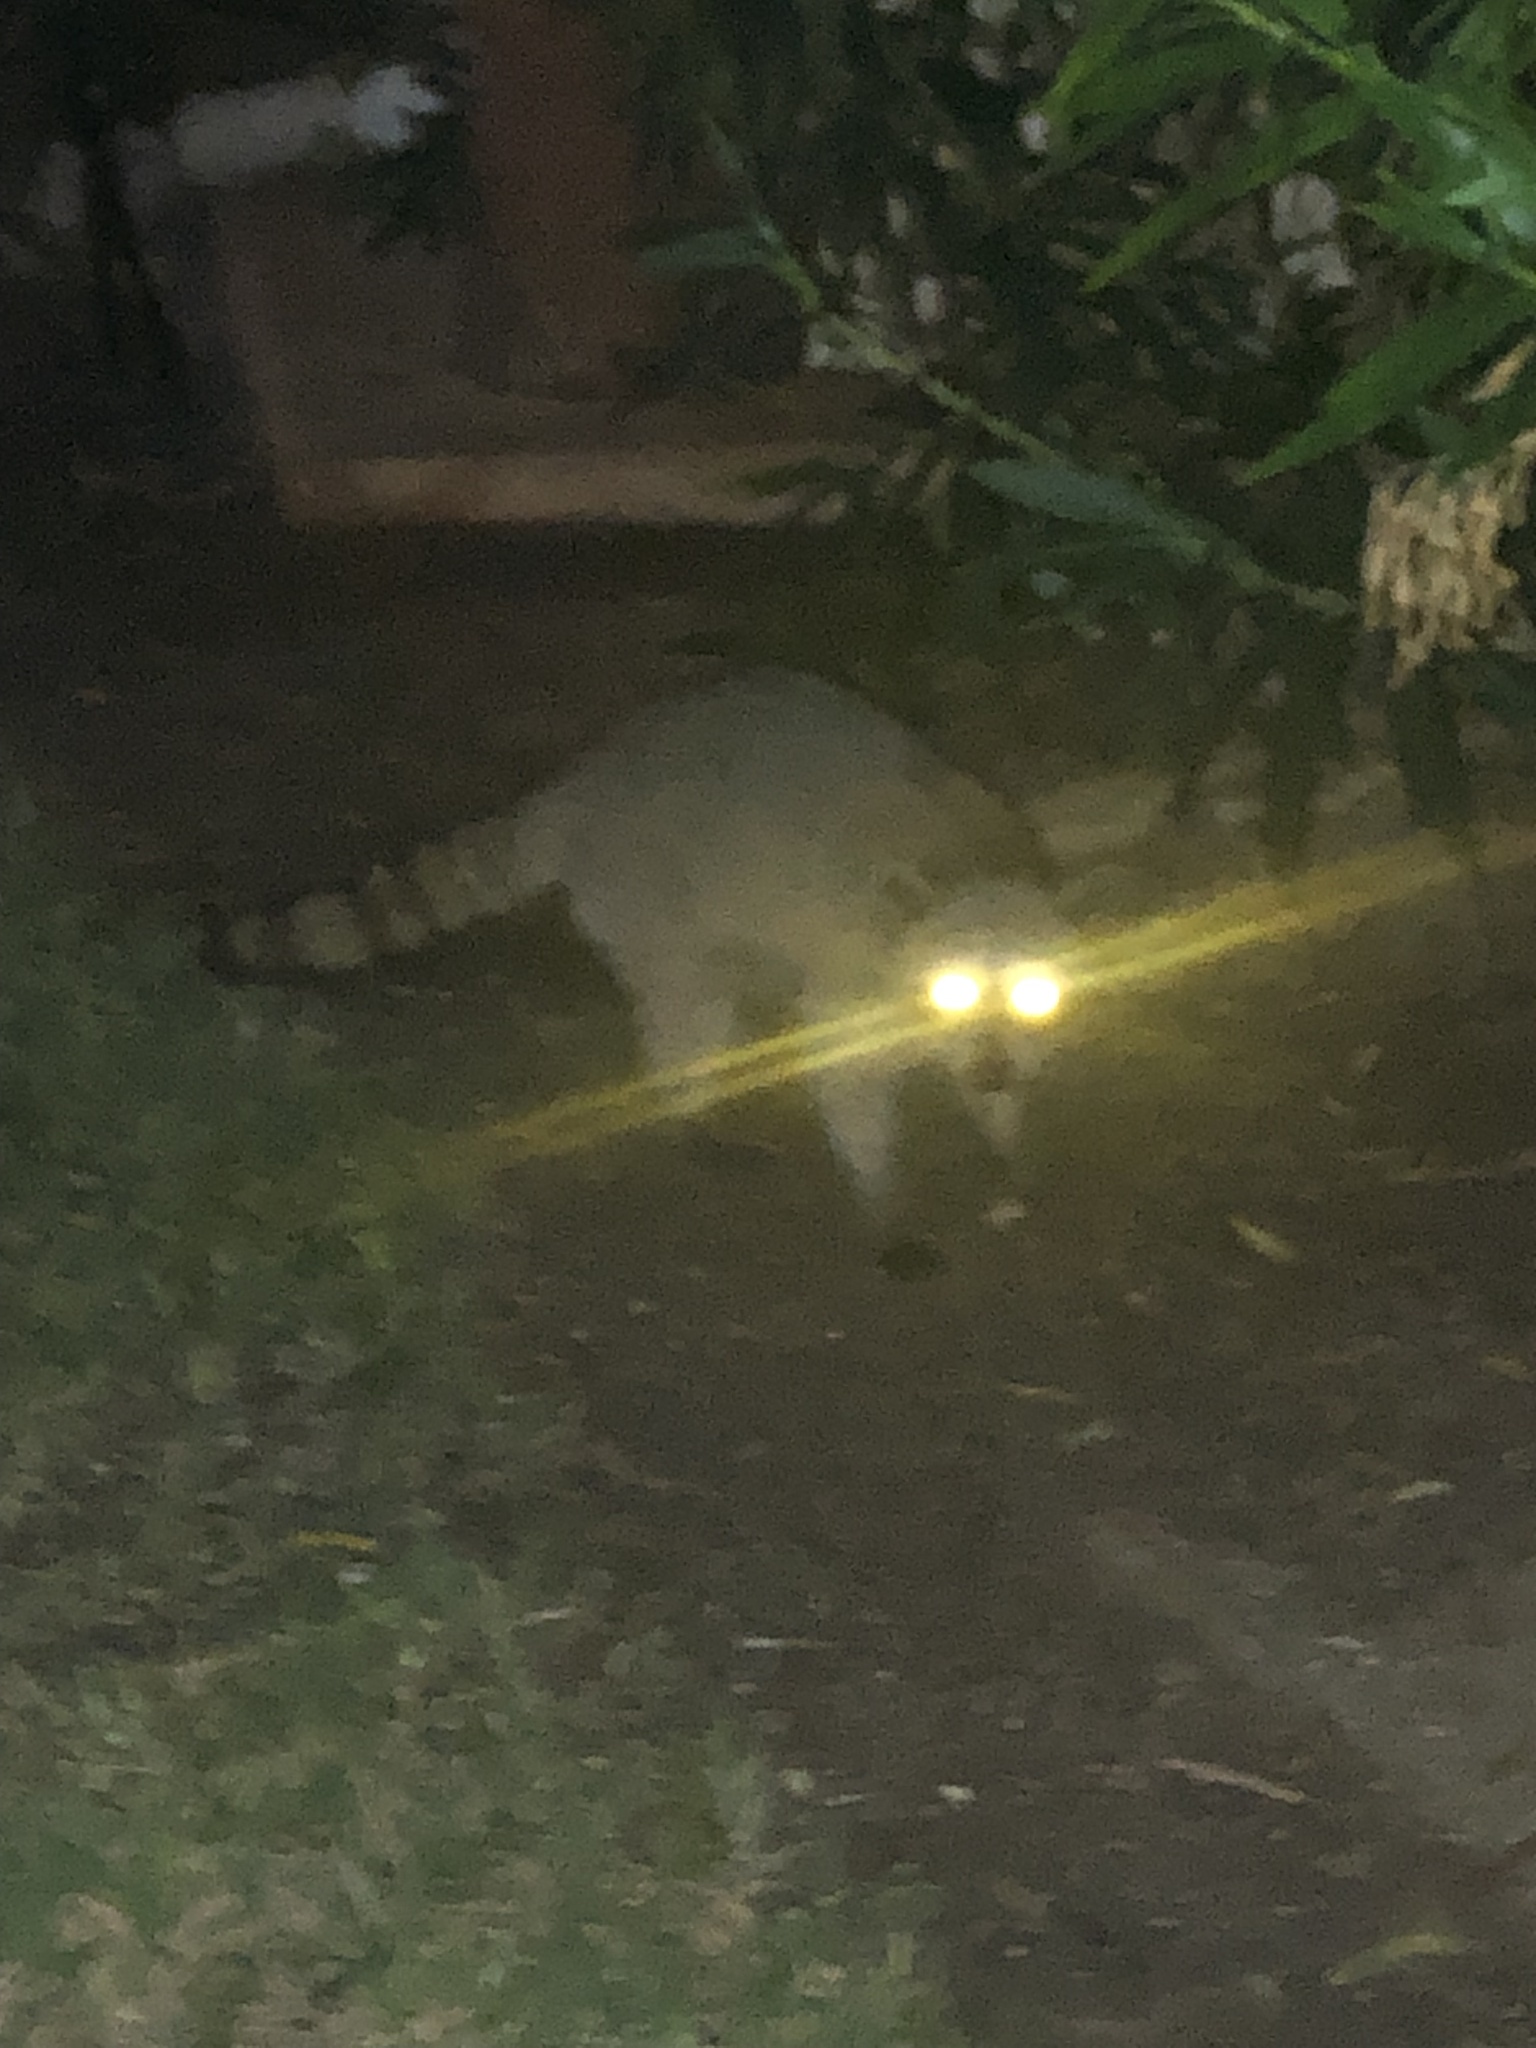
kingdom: Animalia
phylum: Chordata
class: Mammalia
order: Carnivora
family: Procyonidae
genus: Procyon
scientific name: Procyon lotor
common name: Raccoon
